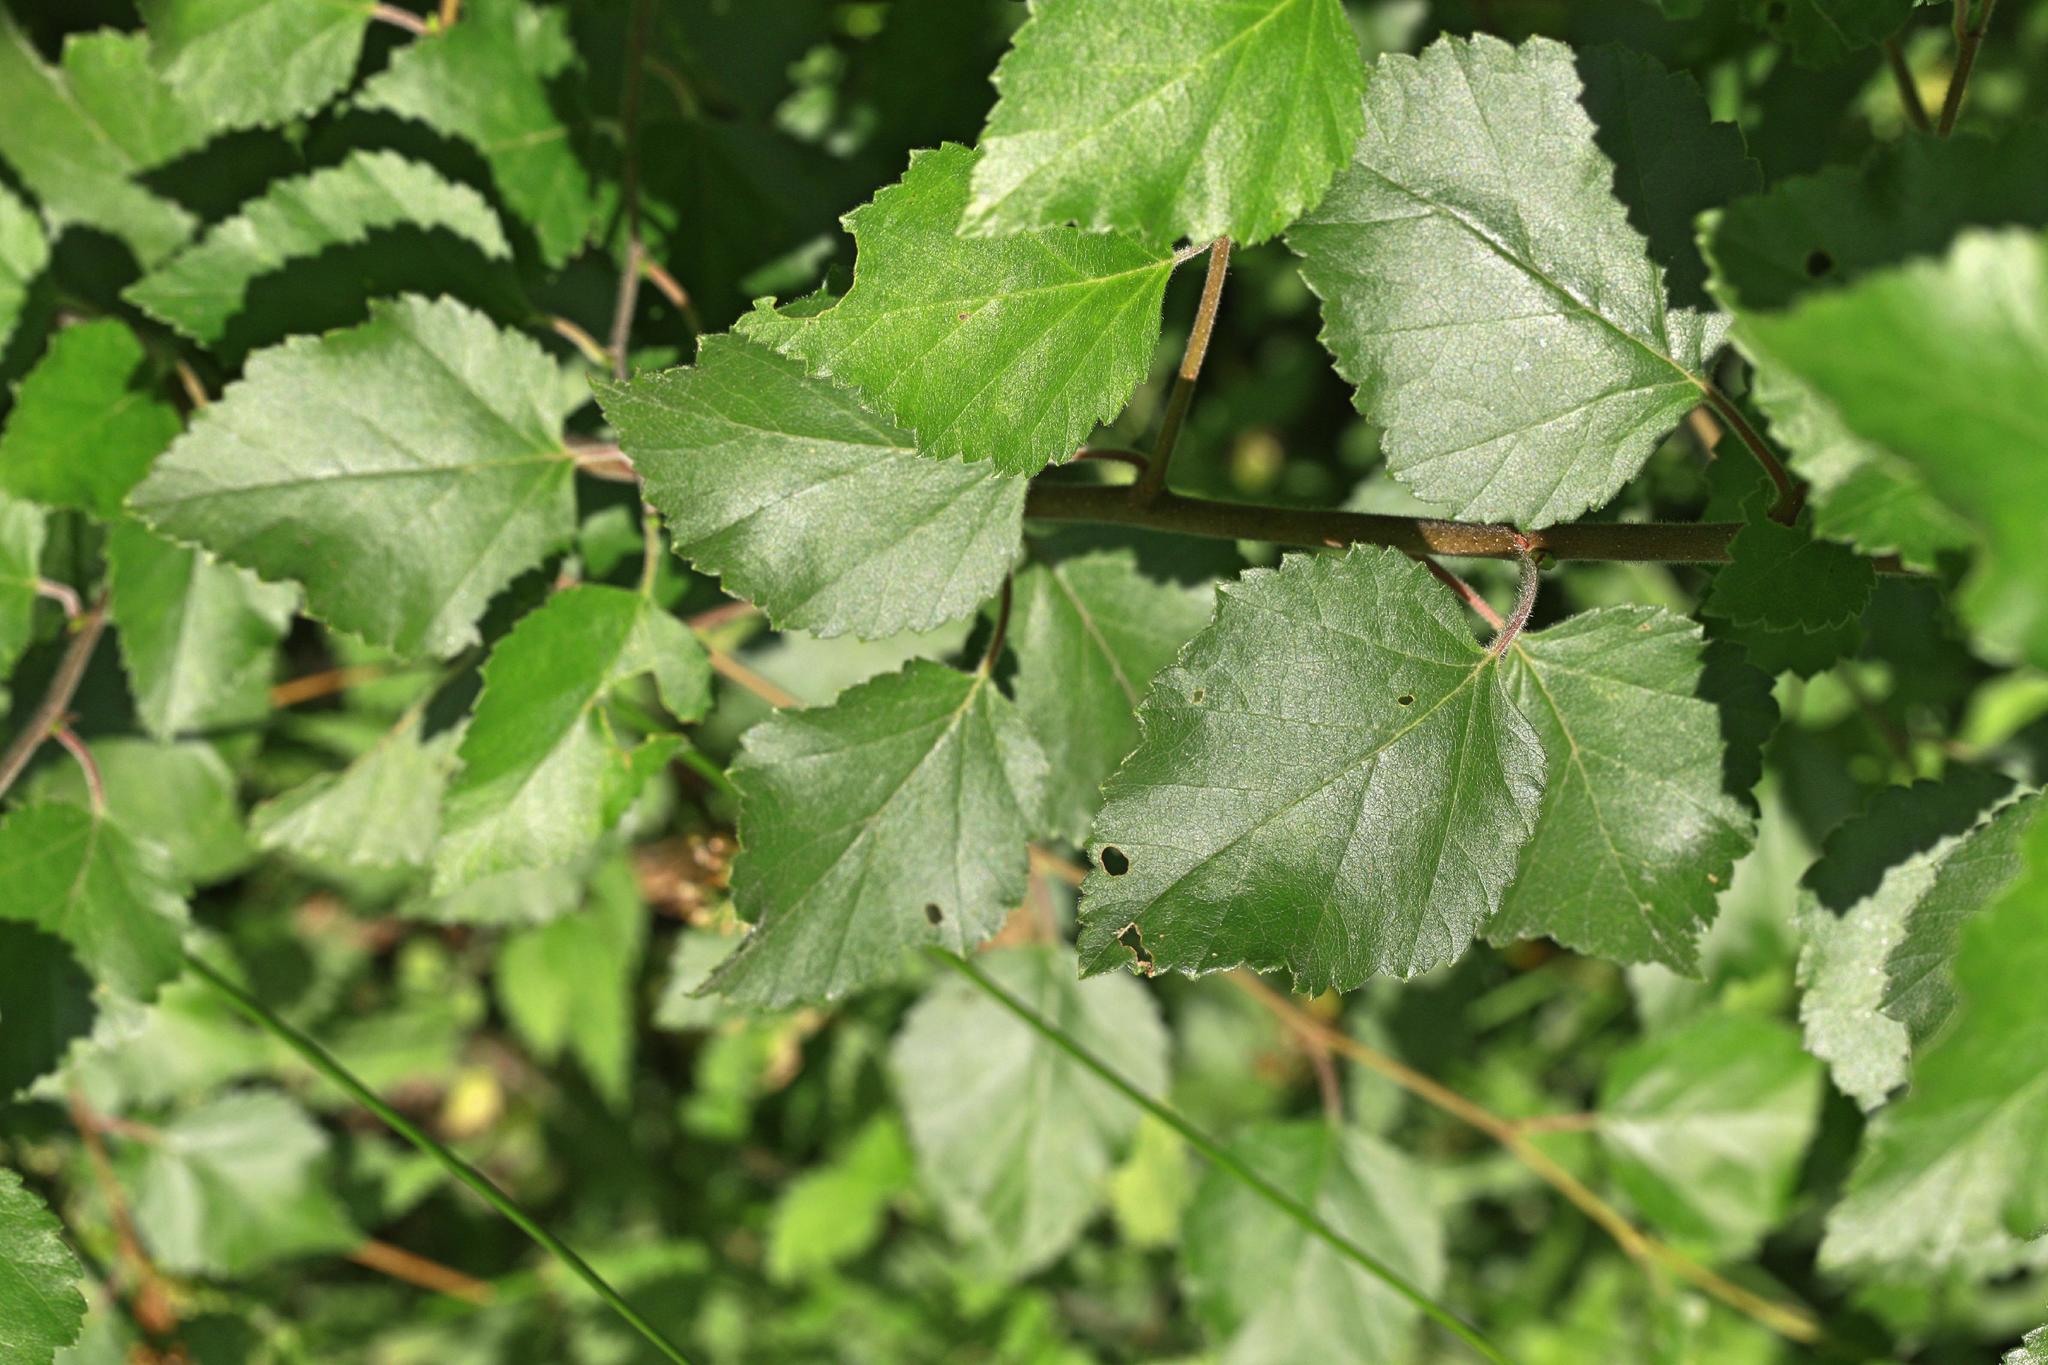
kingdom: Plantae
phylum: Tracheophyta
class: Magnoliopsida
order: Fagales
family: Betulaceae
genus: Betula
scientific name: Betula pubescens
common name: Downy birch
